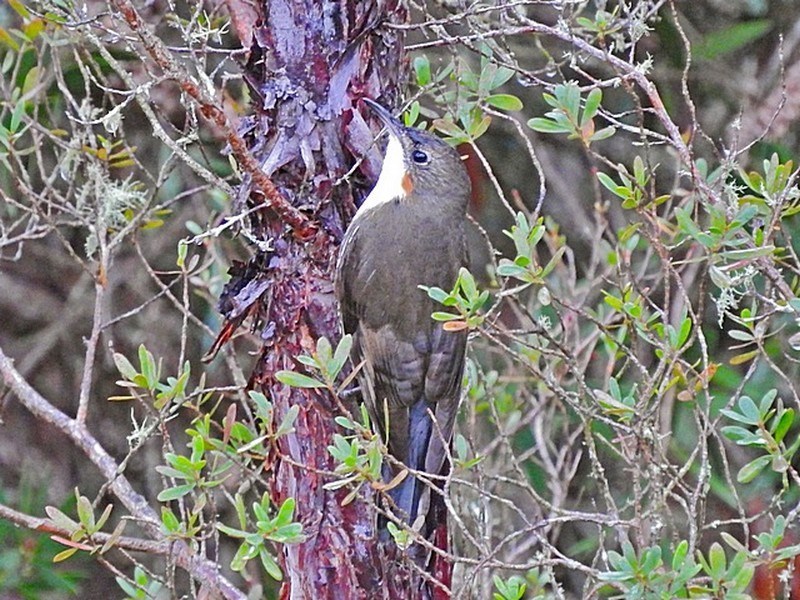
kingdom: Animalia
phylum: Chordata
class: Aves
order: Passeriformes
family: Climacteridae
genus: Cormobates
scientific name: Cormobates leucophaea
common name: White-throated treecreeper
